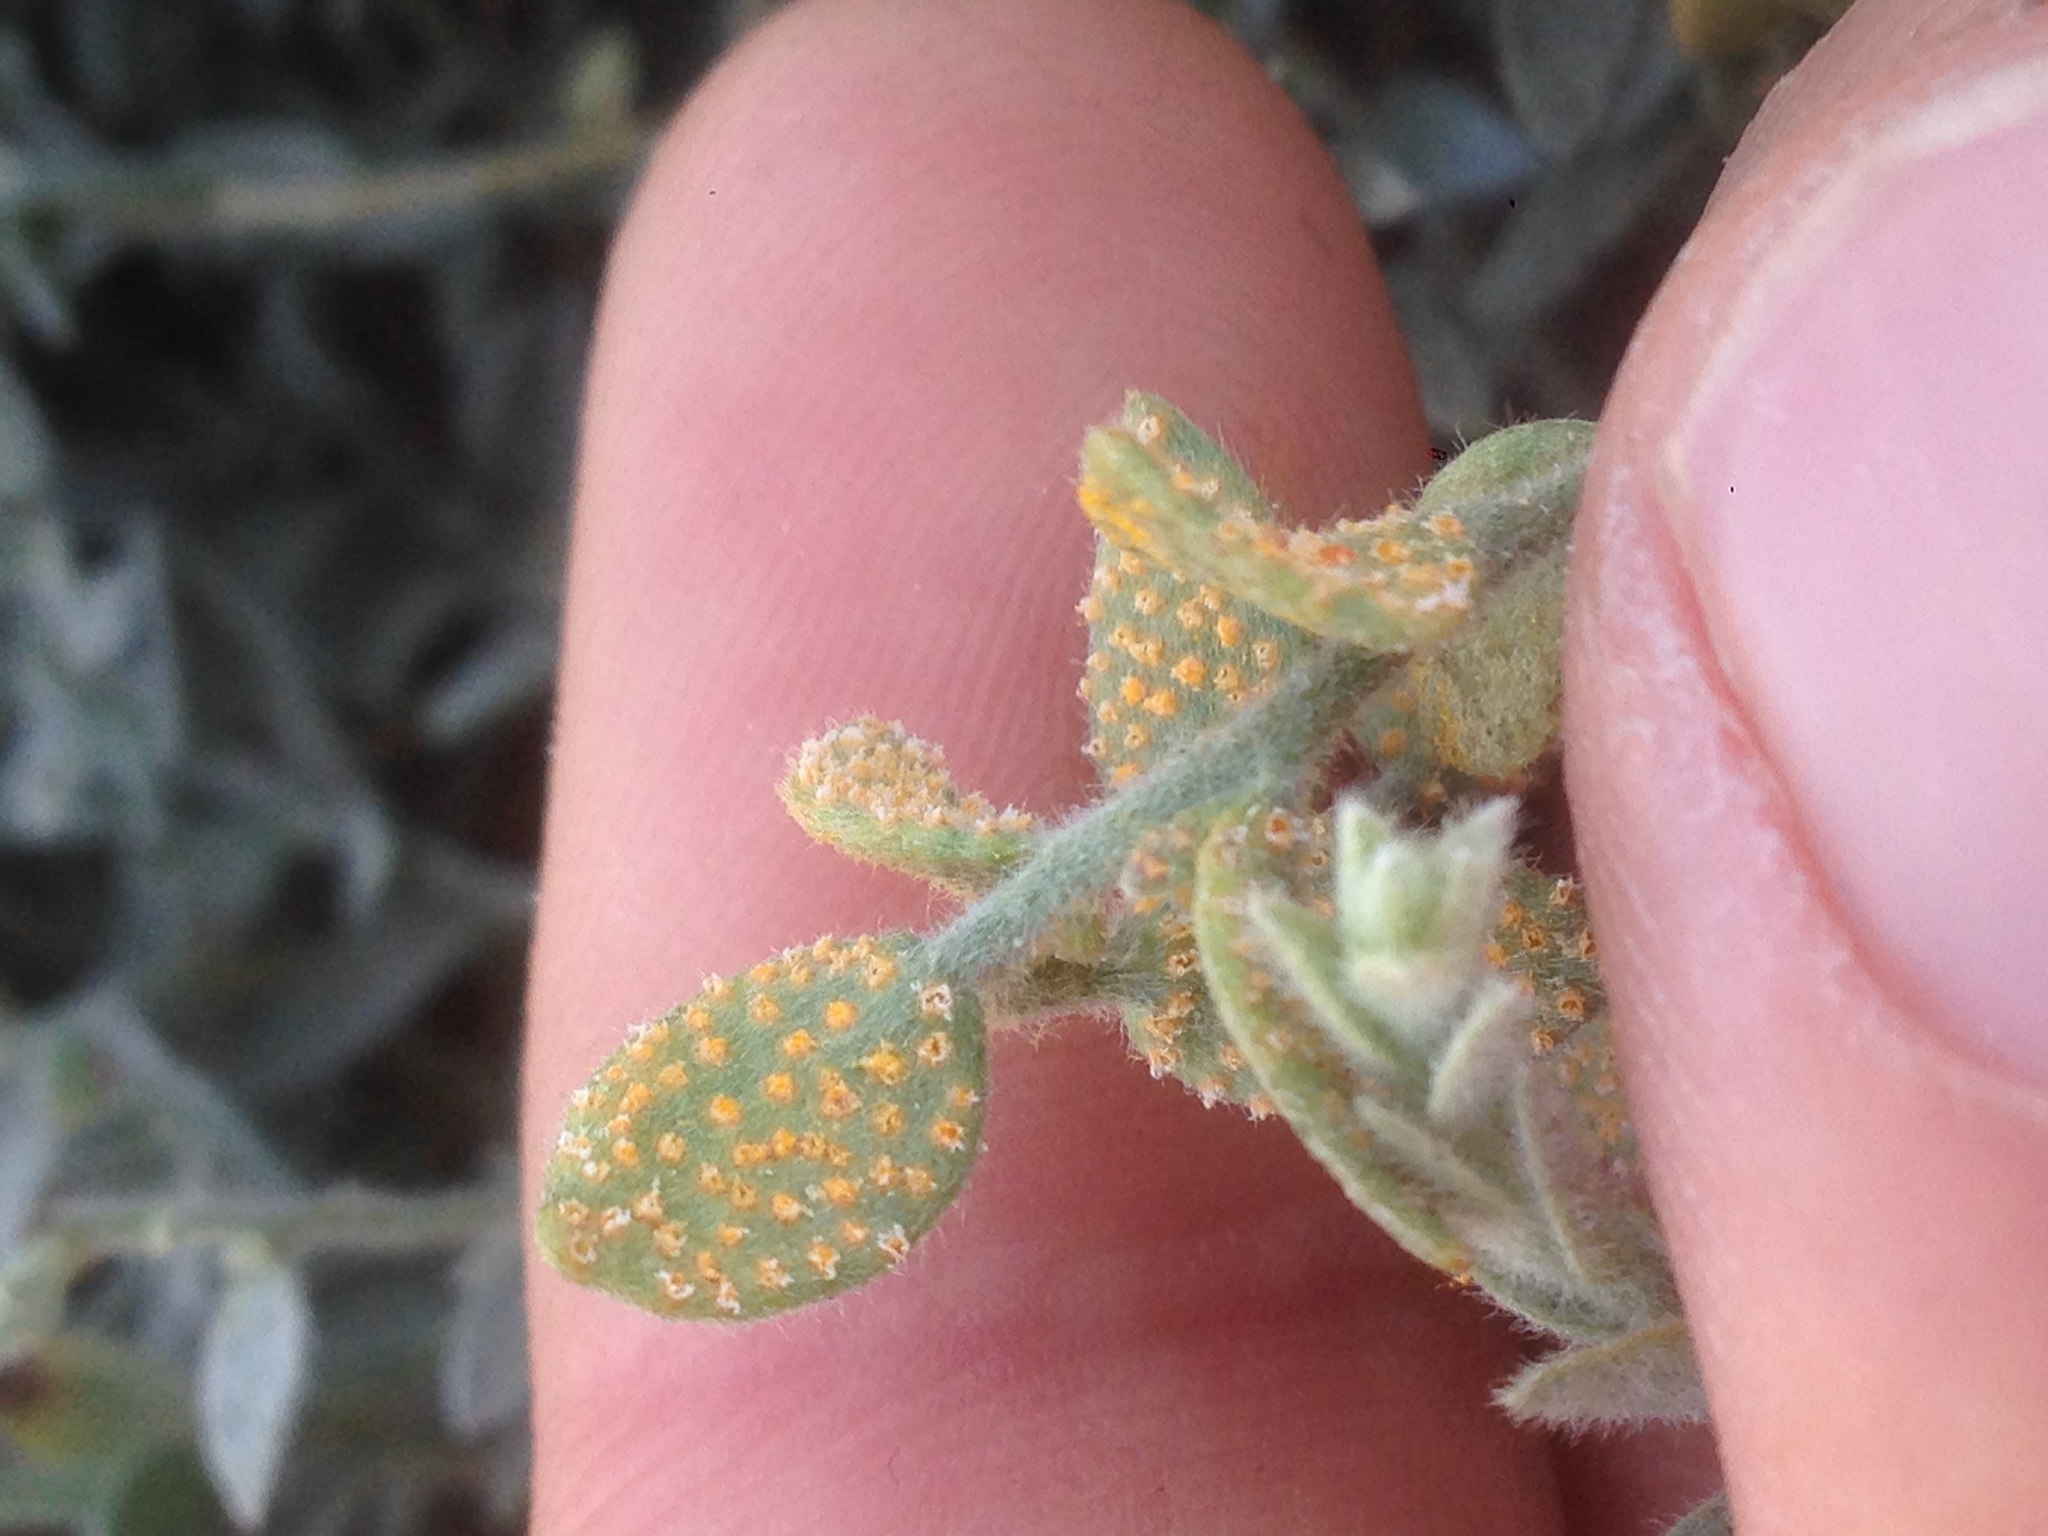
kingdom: Fungi
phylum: Basidiomycota
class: Pucciniomycetes
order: Pucciniales
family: Pucciniaceae
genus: Puccinia
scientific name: Puccinia cressae
